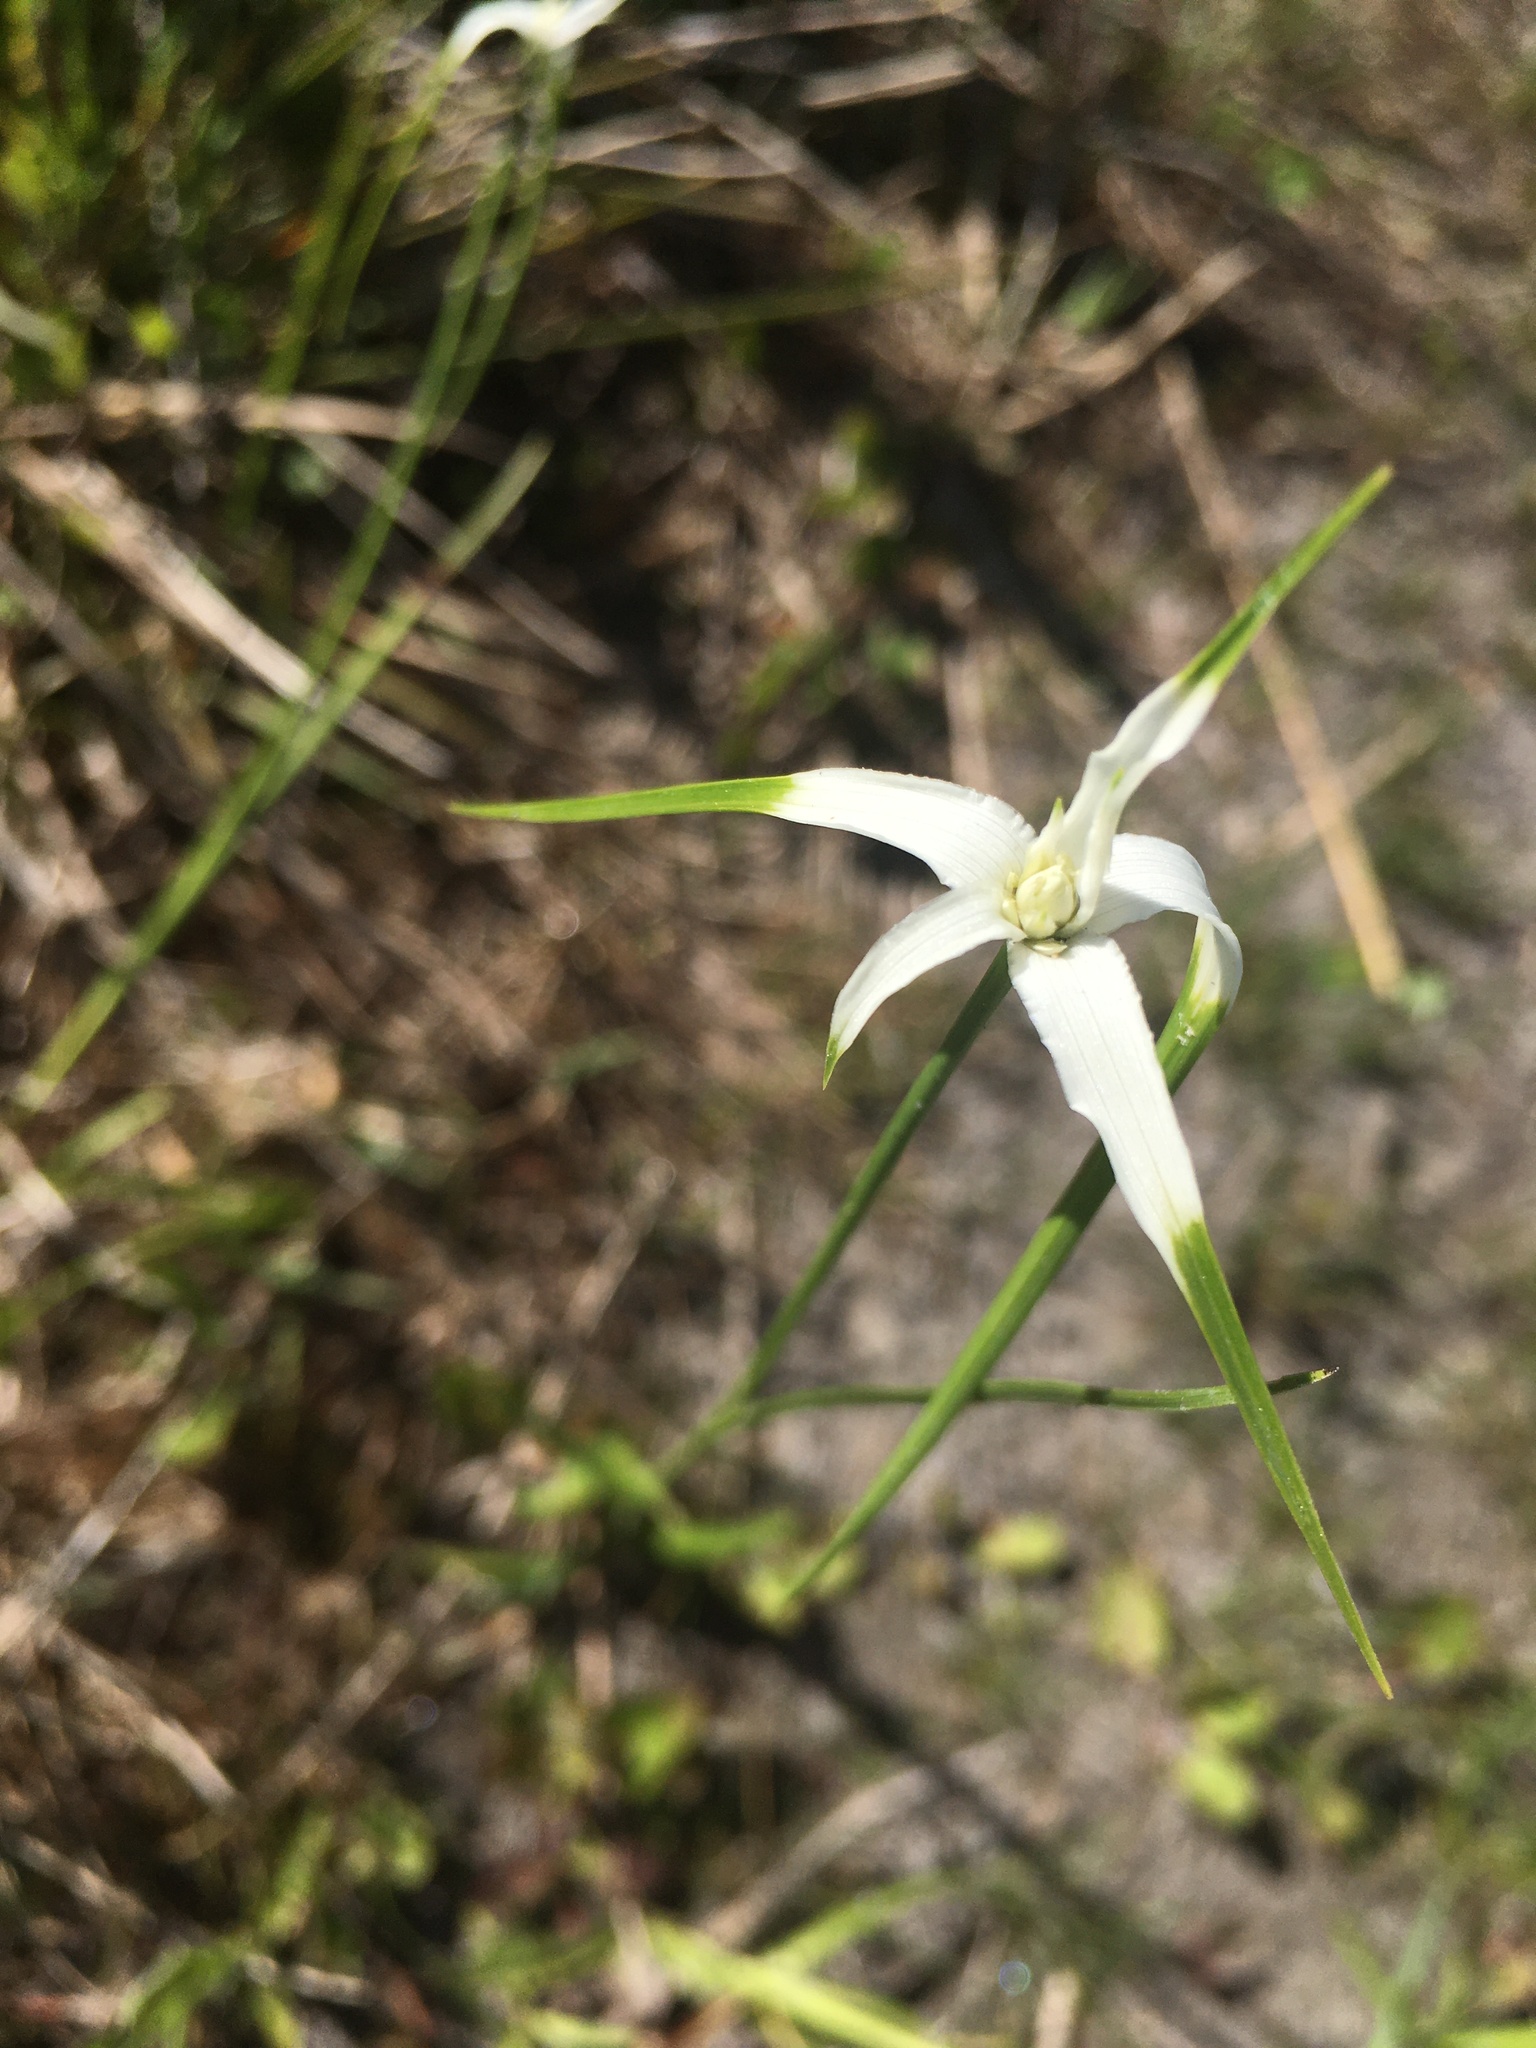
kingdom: Plantae
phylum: Tracheophyta
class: Liliopsida
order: Poales
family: Cyperaceae
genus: Rhynchospora
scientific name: Rhynchospora colorata
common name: Star sedge
